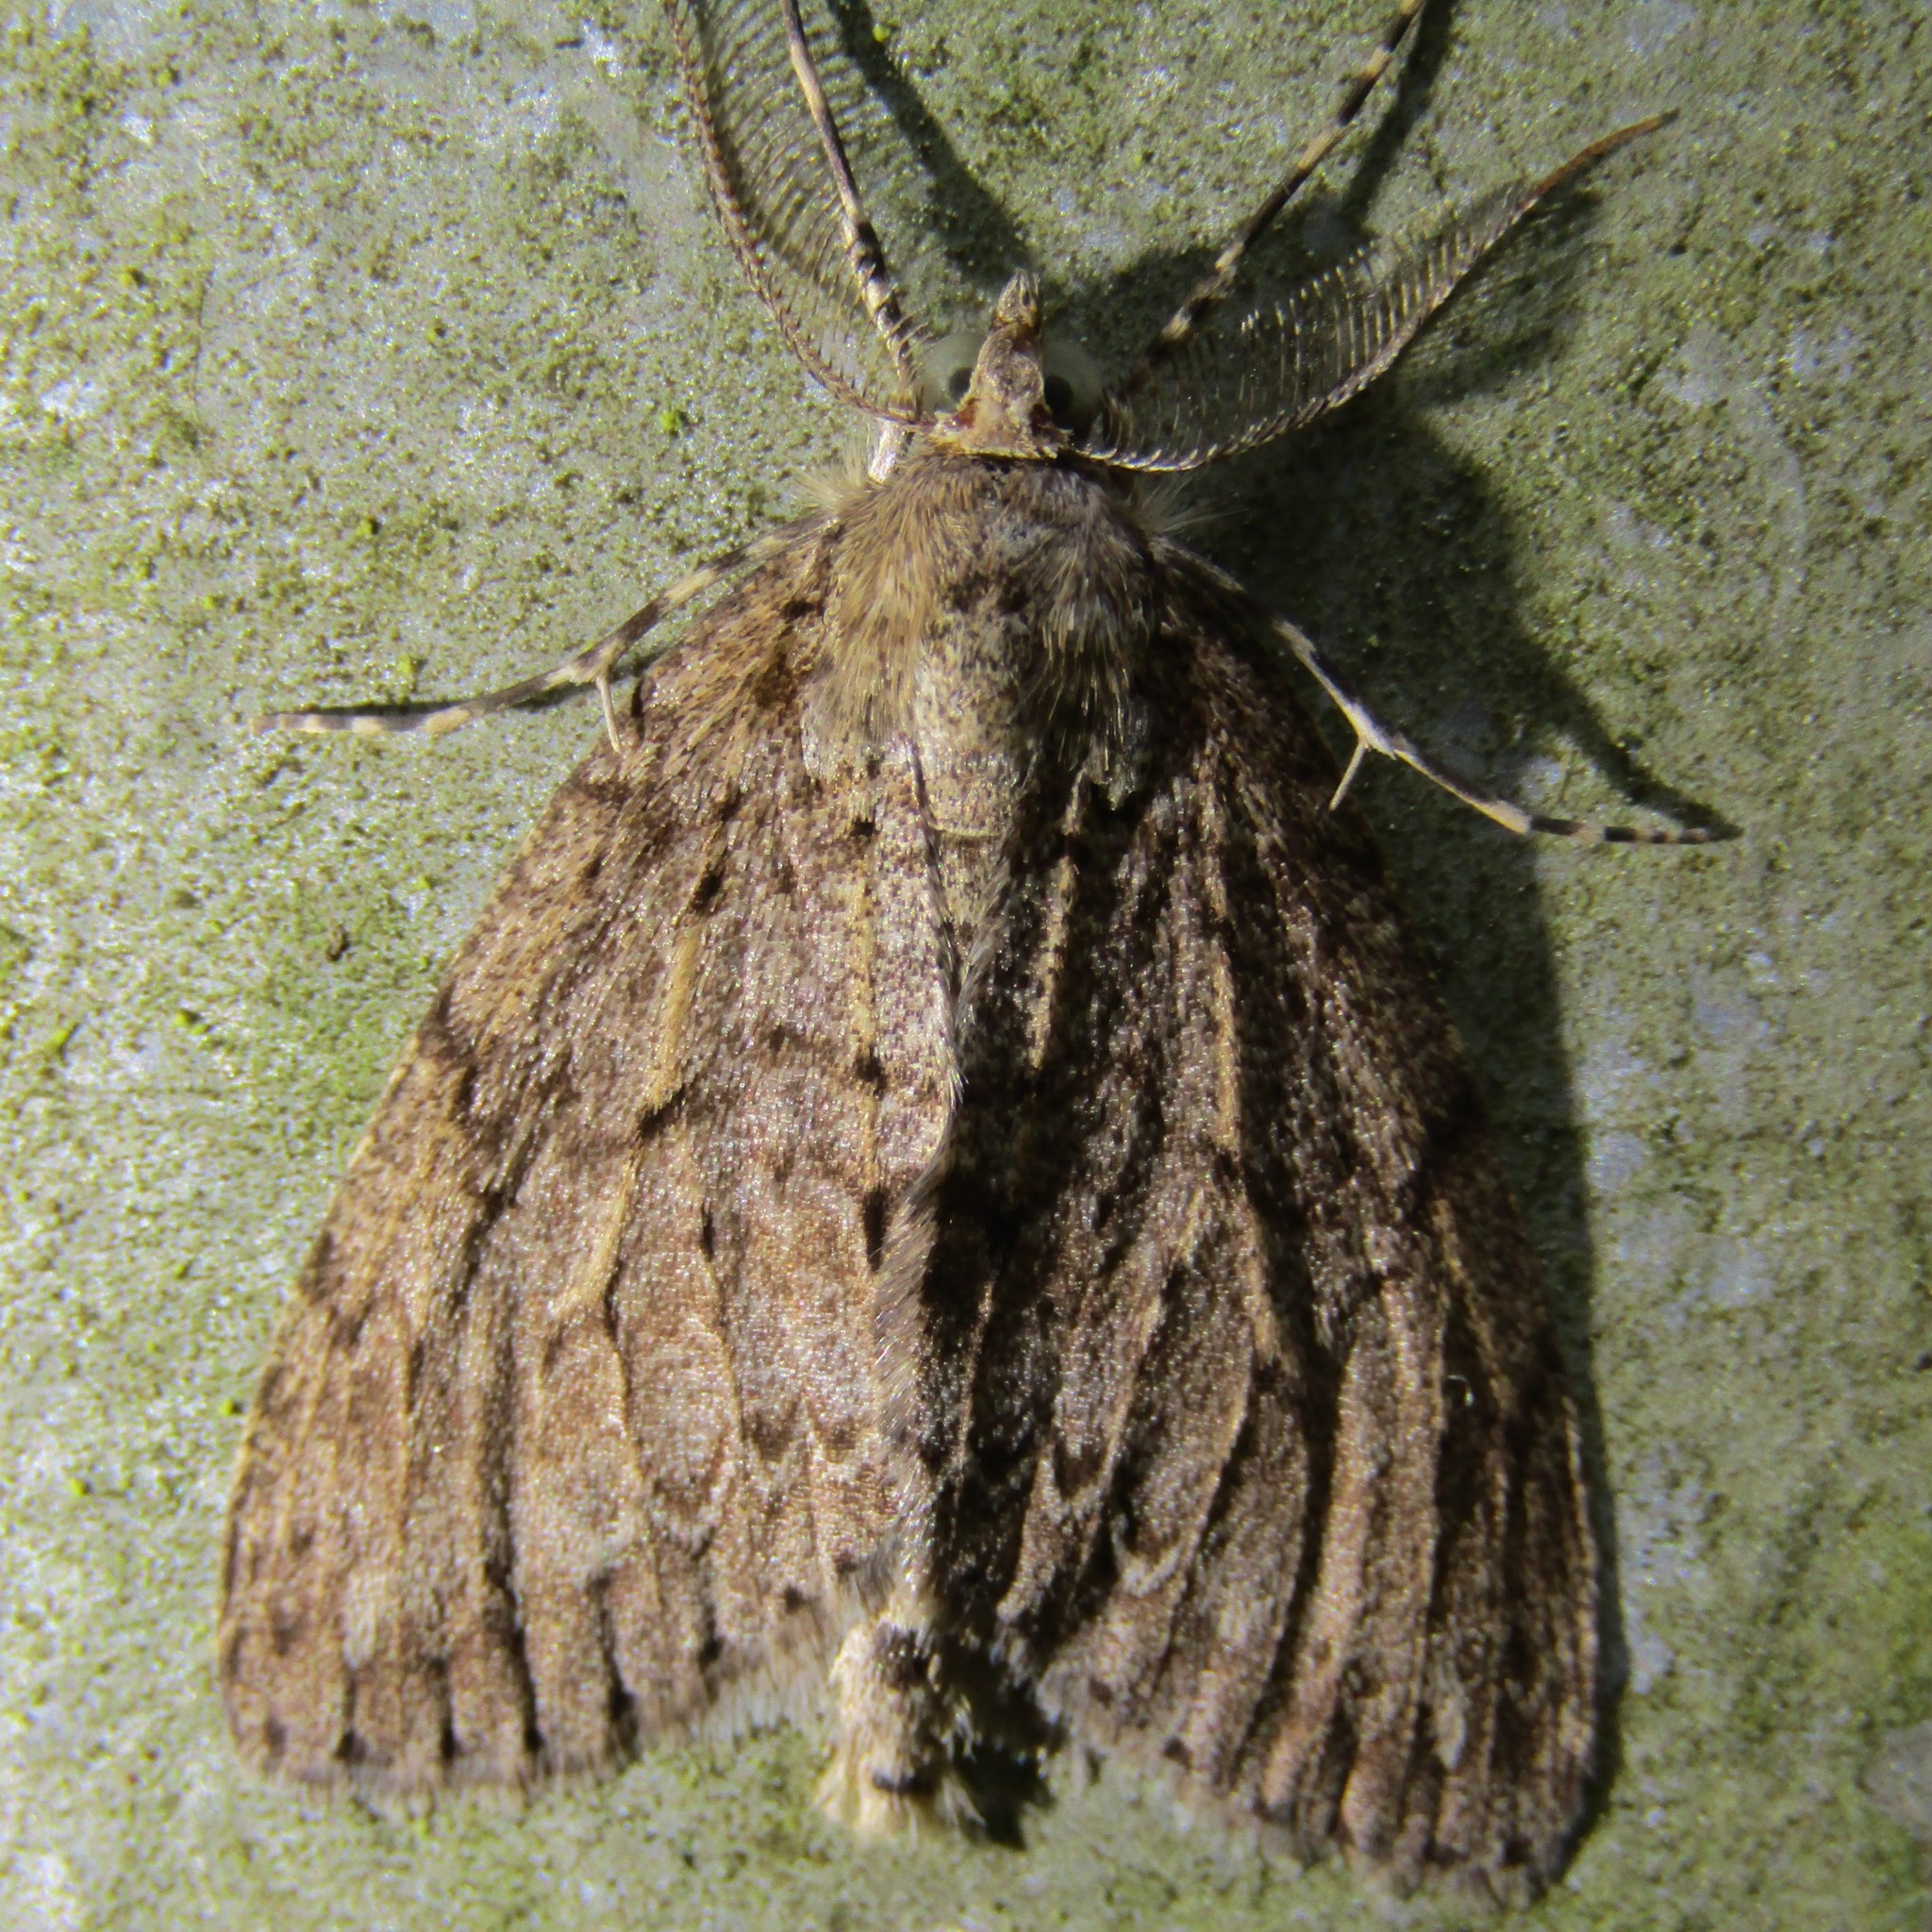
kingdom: Animalia
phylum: Arthropoda
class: Insecta
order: Lepidoptera
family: Geometridae
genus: Pseudocoremia
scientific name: Pseudocoremia fenerata
